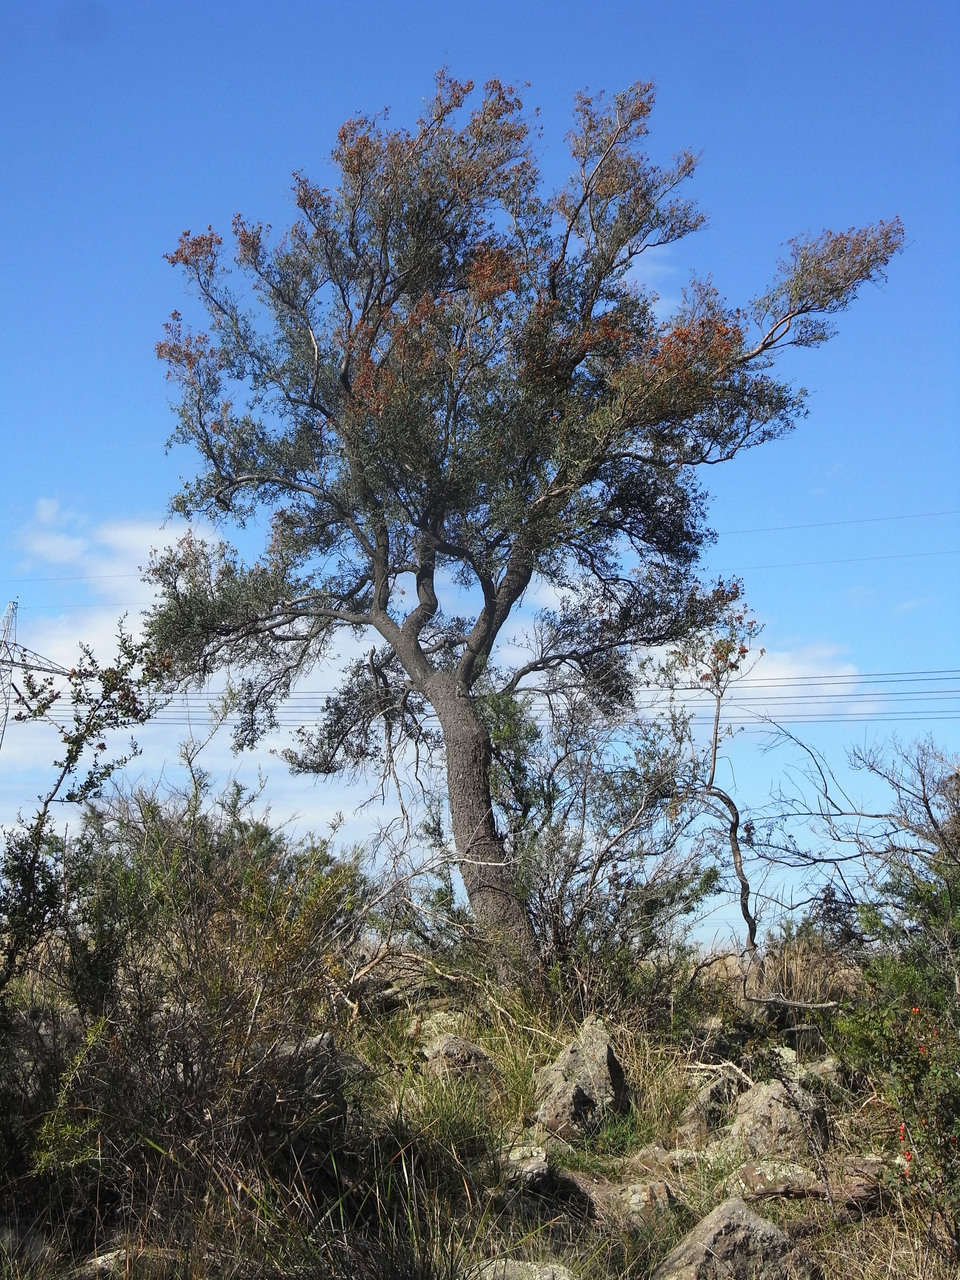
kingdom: Plantae
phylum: Tracheophyta
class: Magnoliopsida
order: Apiales
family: Pittosporaceae
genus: Bursaria
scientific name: Bursaria spinosa
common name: Australian blackthorn
